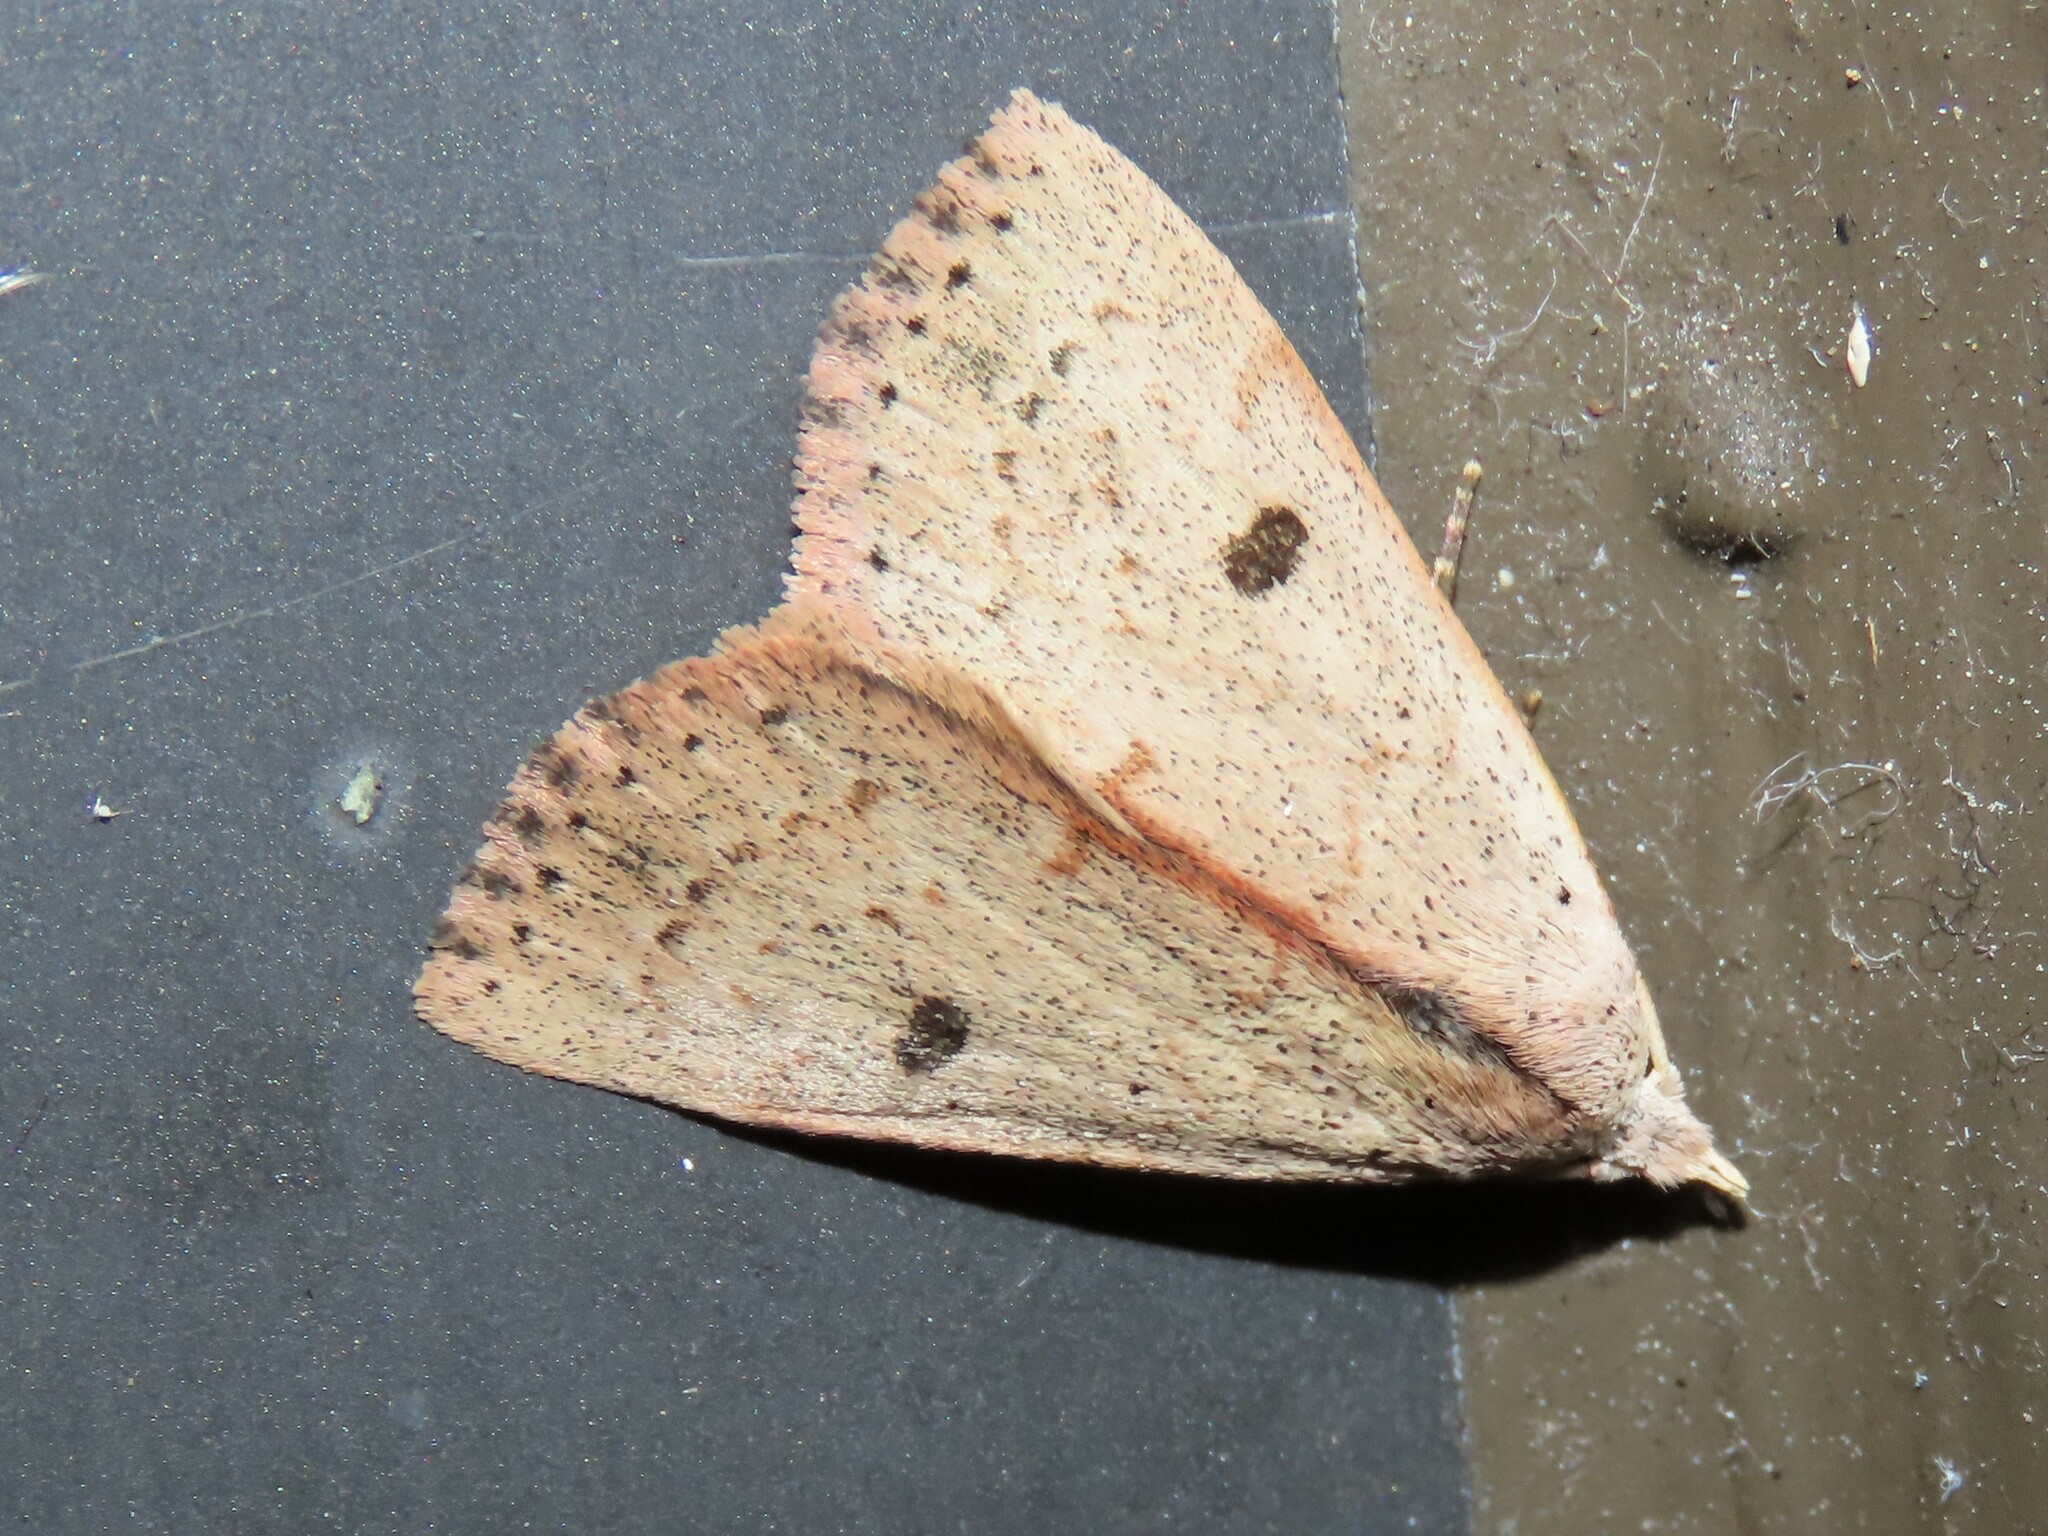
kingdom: Animalia
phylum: Arthropoda
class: Insecta
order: Lepidoptera
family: Erebidae
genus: Scolecocampa
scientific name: Scolecocampa liburna
